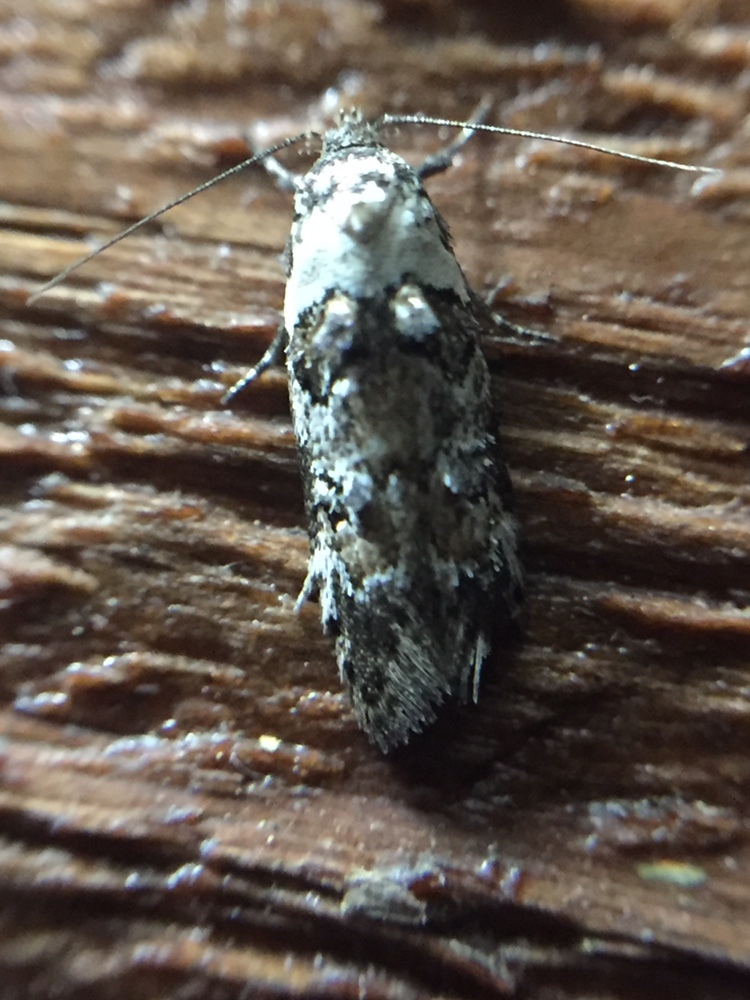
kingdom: Animalia
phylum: Arthropoda
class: Insecta
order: Lepidoptera
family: Oecophoridae
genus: Trachypepla
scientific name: Trachypepla festiva
